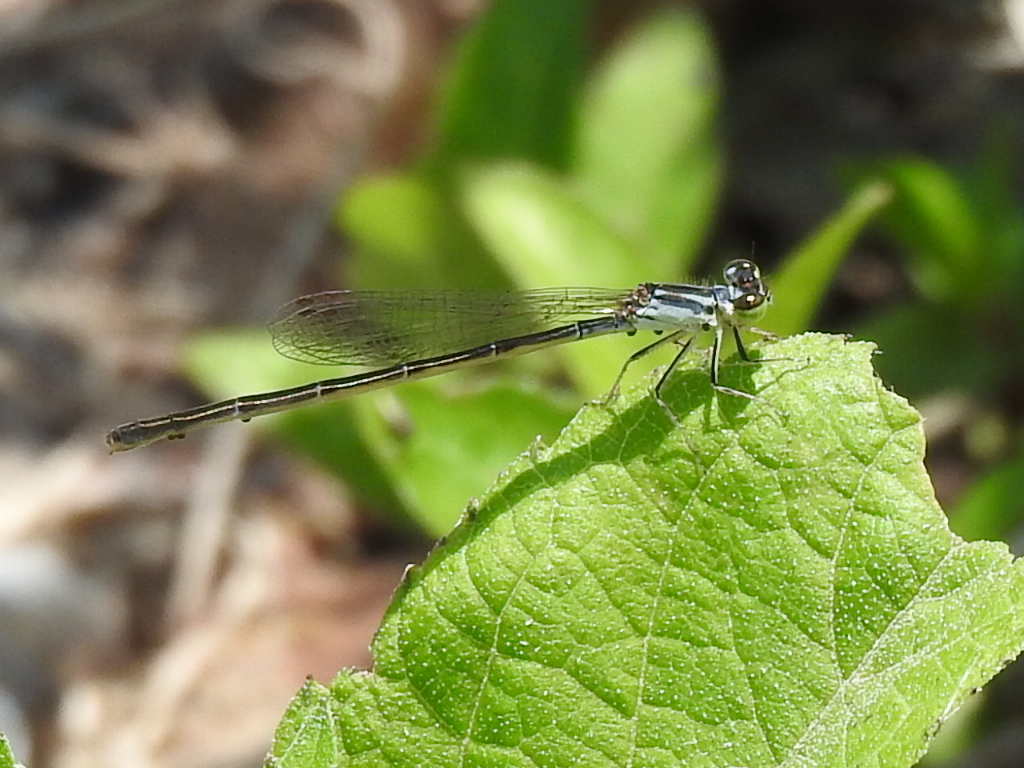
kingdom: Animalia
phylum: Arthropoda
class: Insecta
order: Odonata
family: Coenagrionidae
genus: Ischnura
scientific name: Ischnura posita
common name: Fragile forktail
